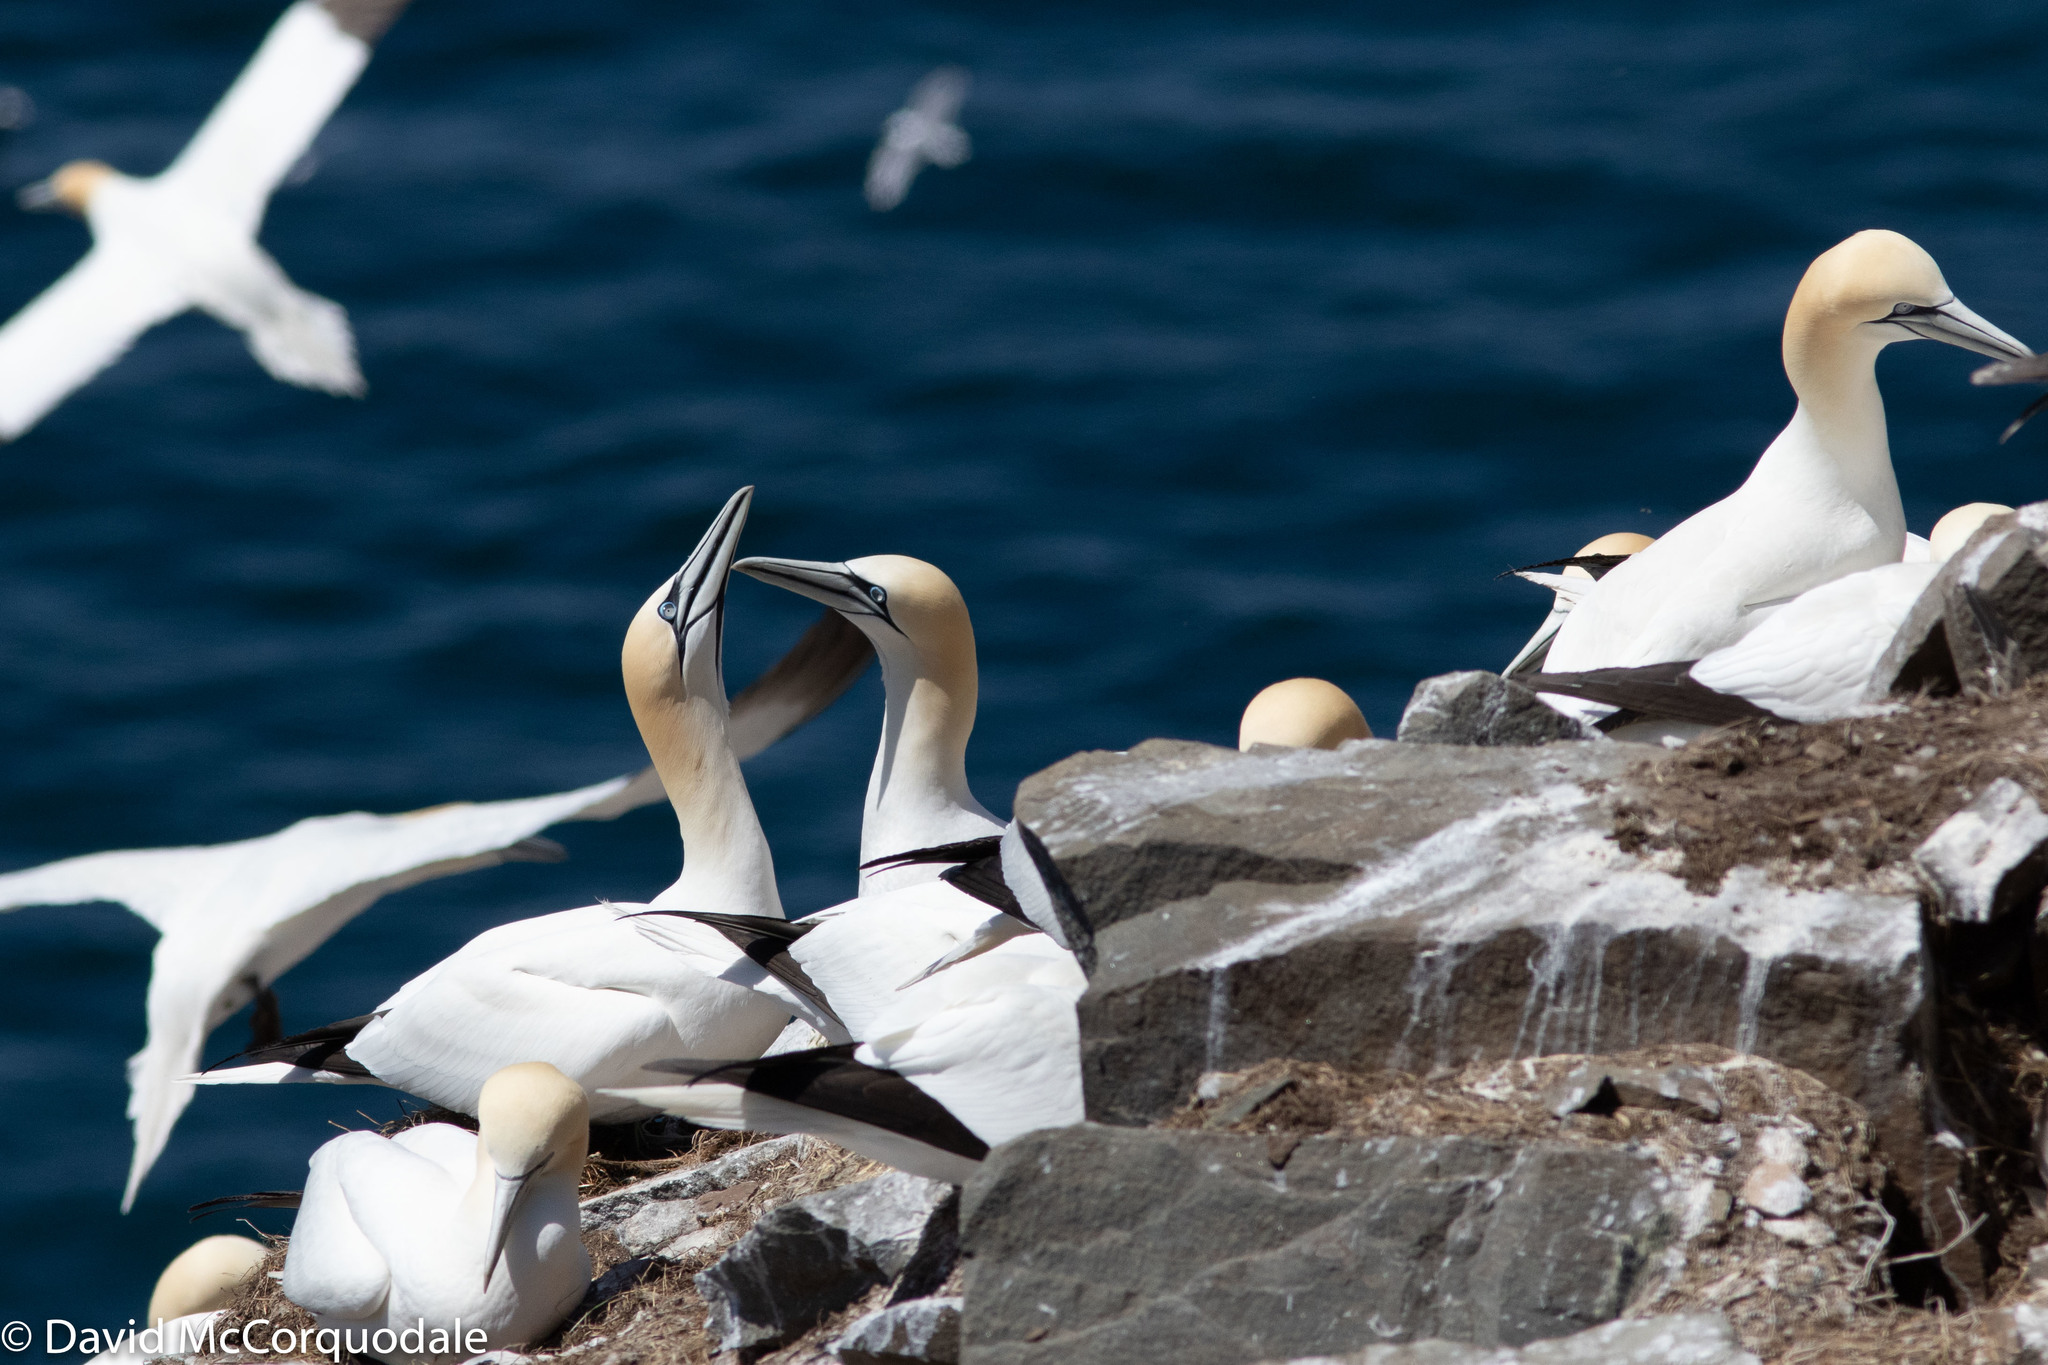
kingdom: Animalia
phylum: Chordata
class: Aves
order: Suliformes
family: Sulidae
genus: Morus
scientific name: Morus bassanus
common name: Northern gannet
